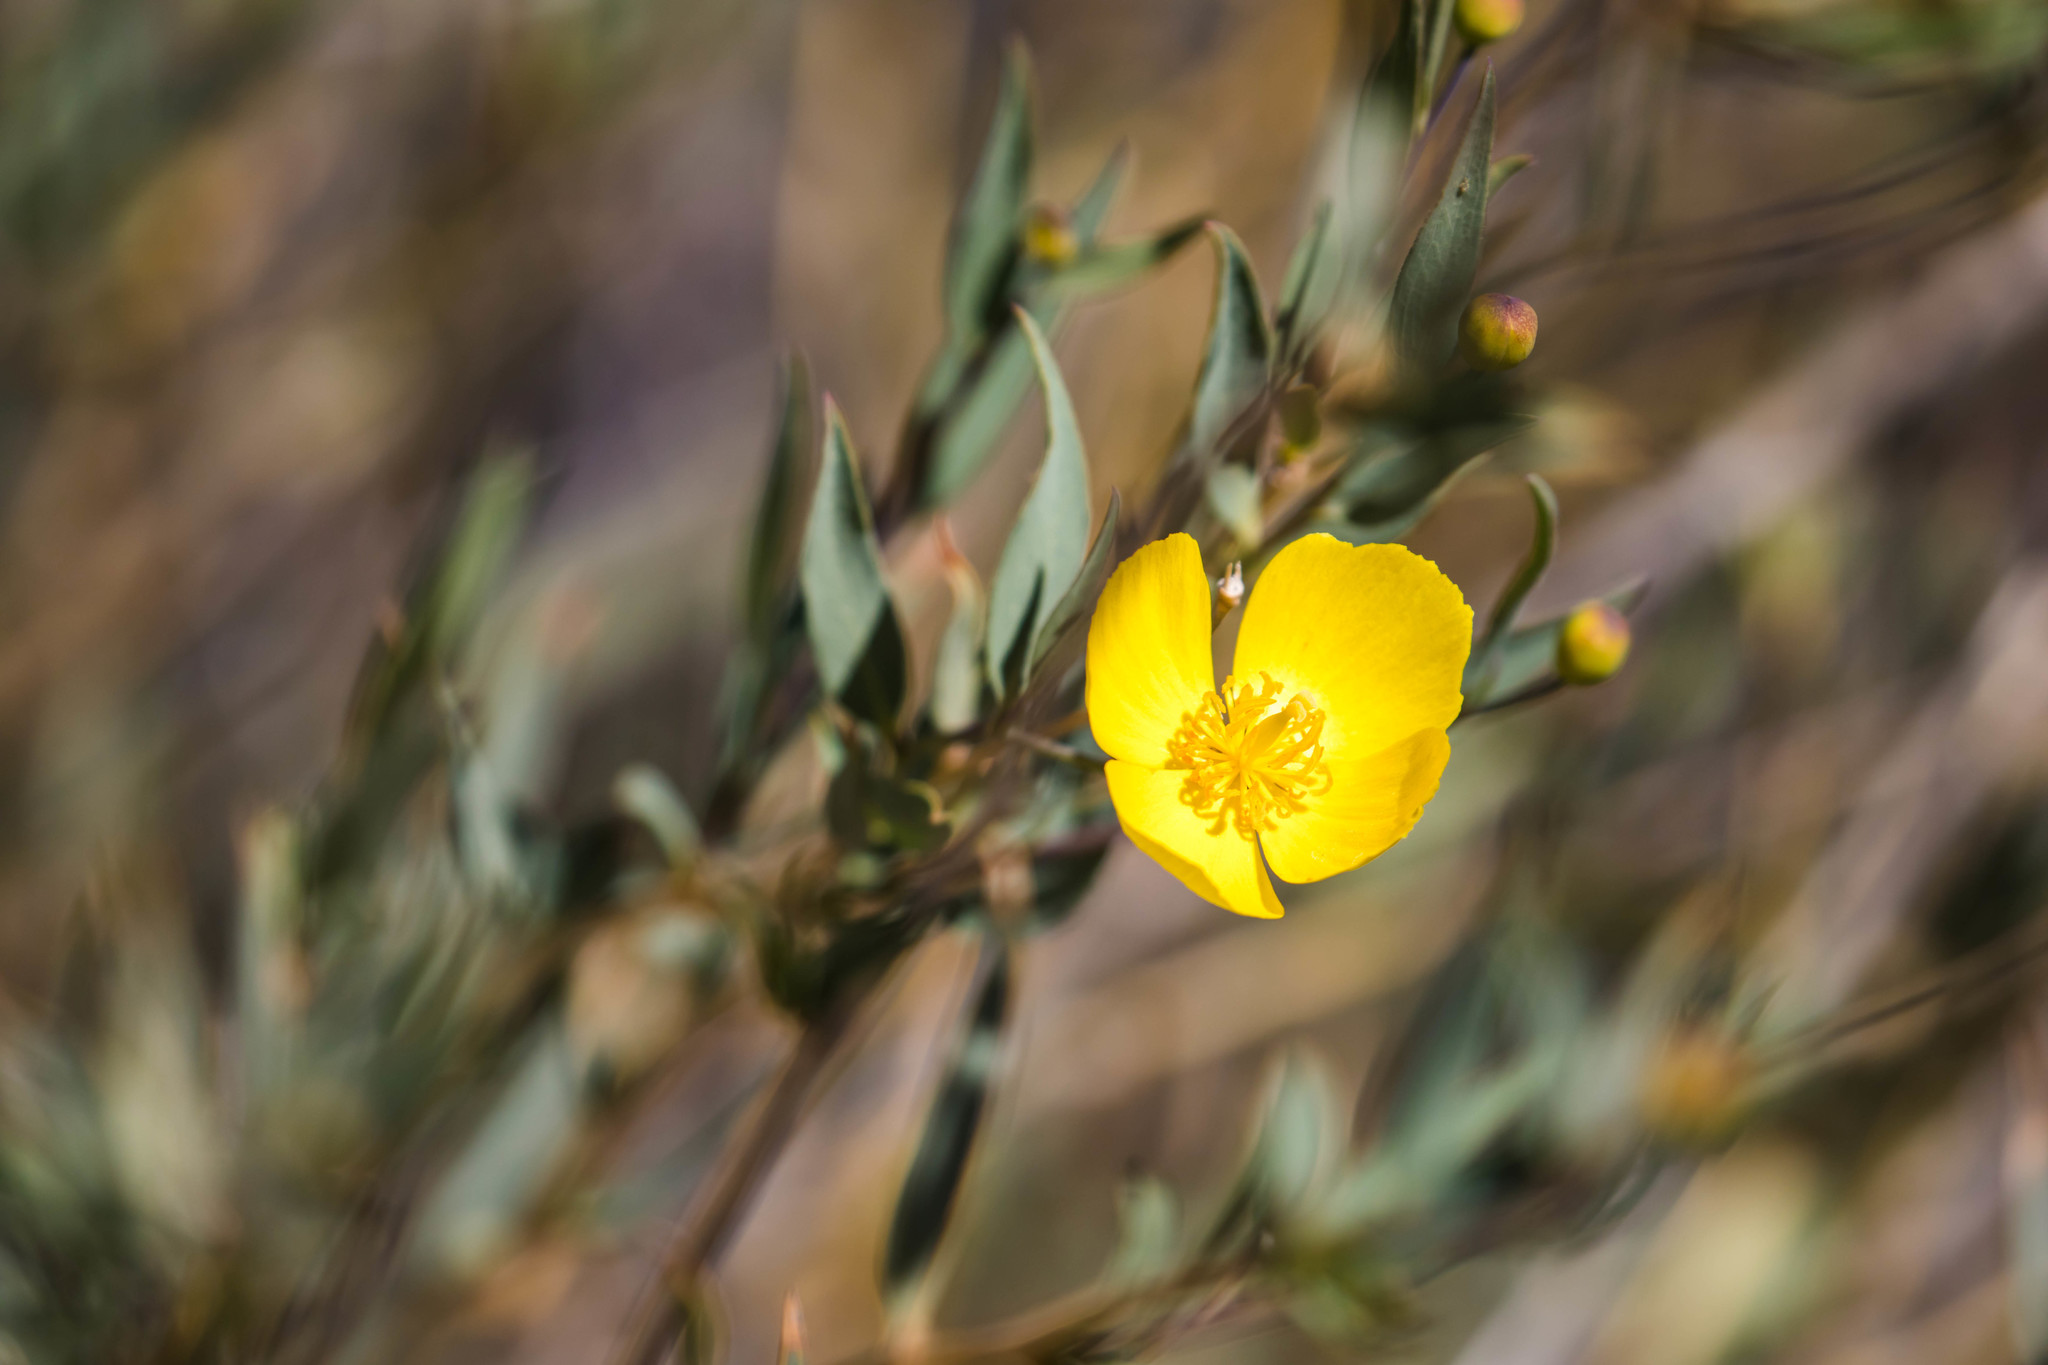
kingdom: Plantae
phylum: Tracheophyta
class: Magnoliopsida
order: Ranunculales
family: Papaveraceae
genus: Dendromecon
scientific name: Dendromecon rigida
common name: Tree poppy
